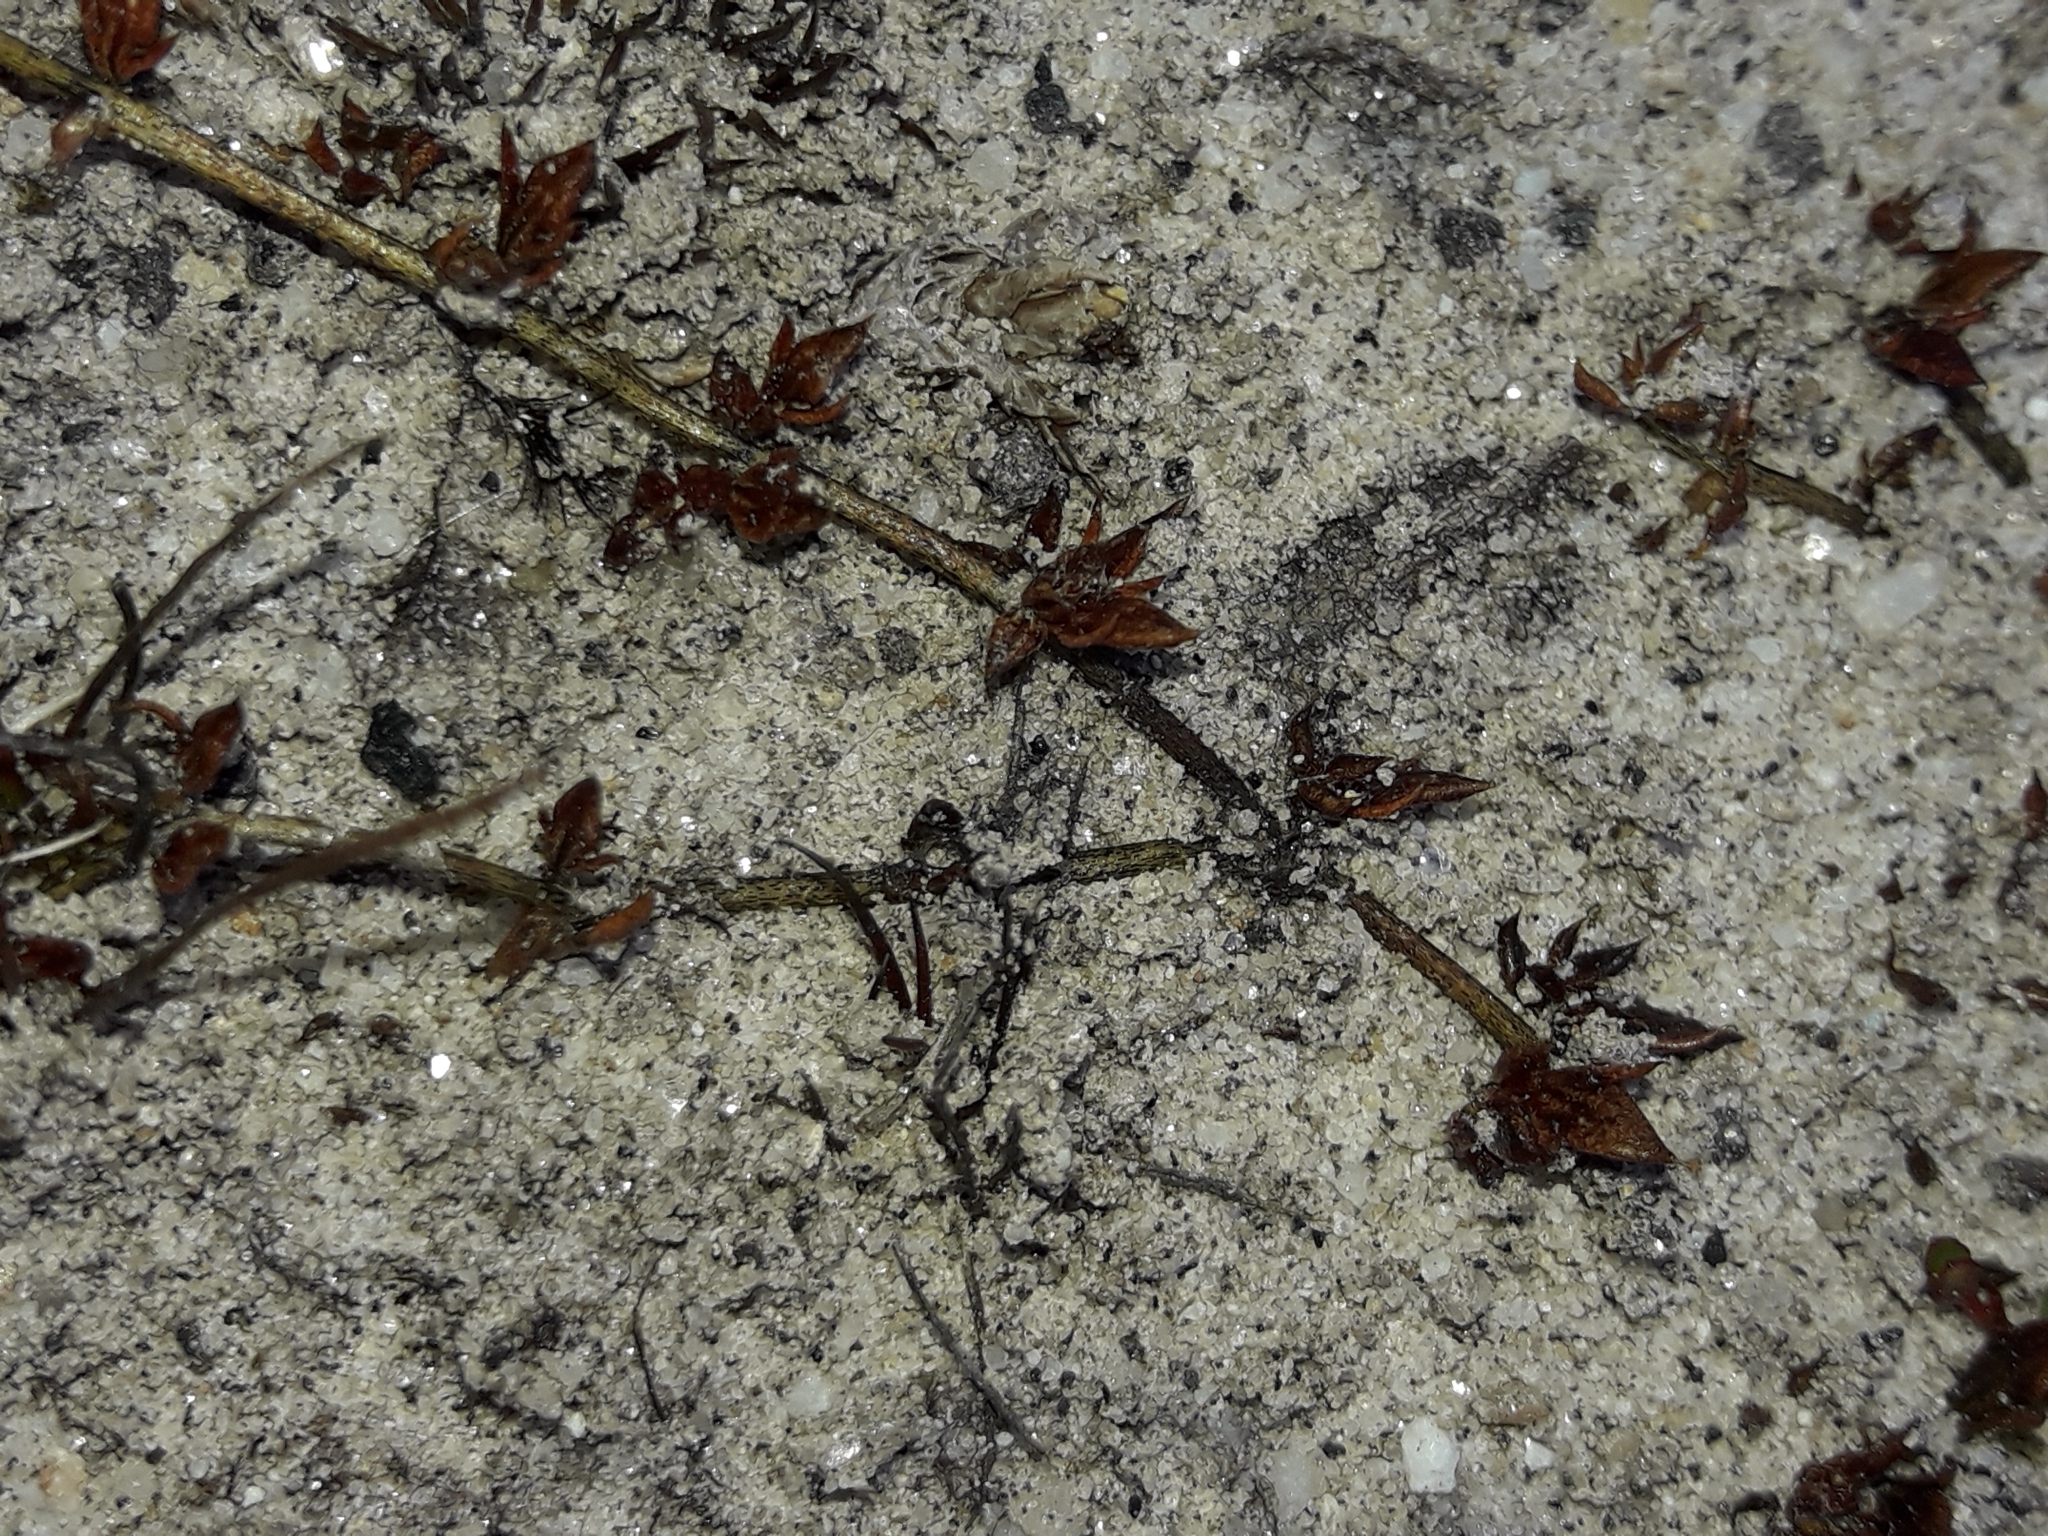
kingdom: Plantae
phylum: Tracheophyta
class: Magnoliopsida
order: Lamiales
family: Orobanchaceae
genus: Euphrasia
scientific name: Euphrasia disperma
